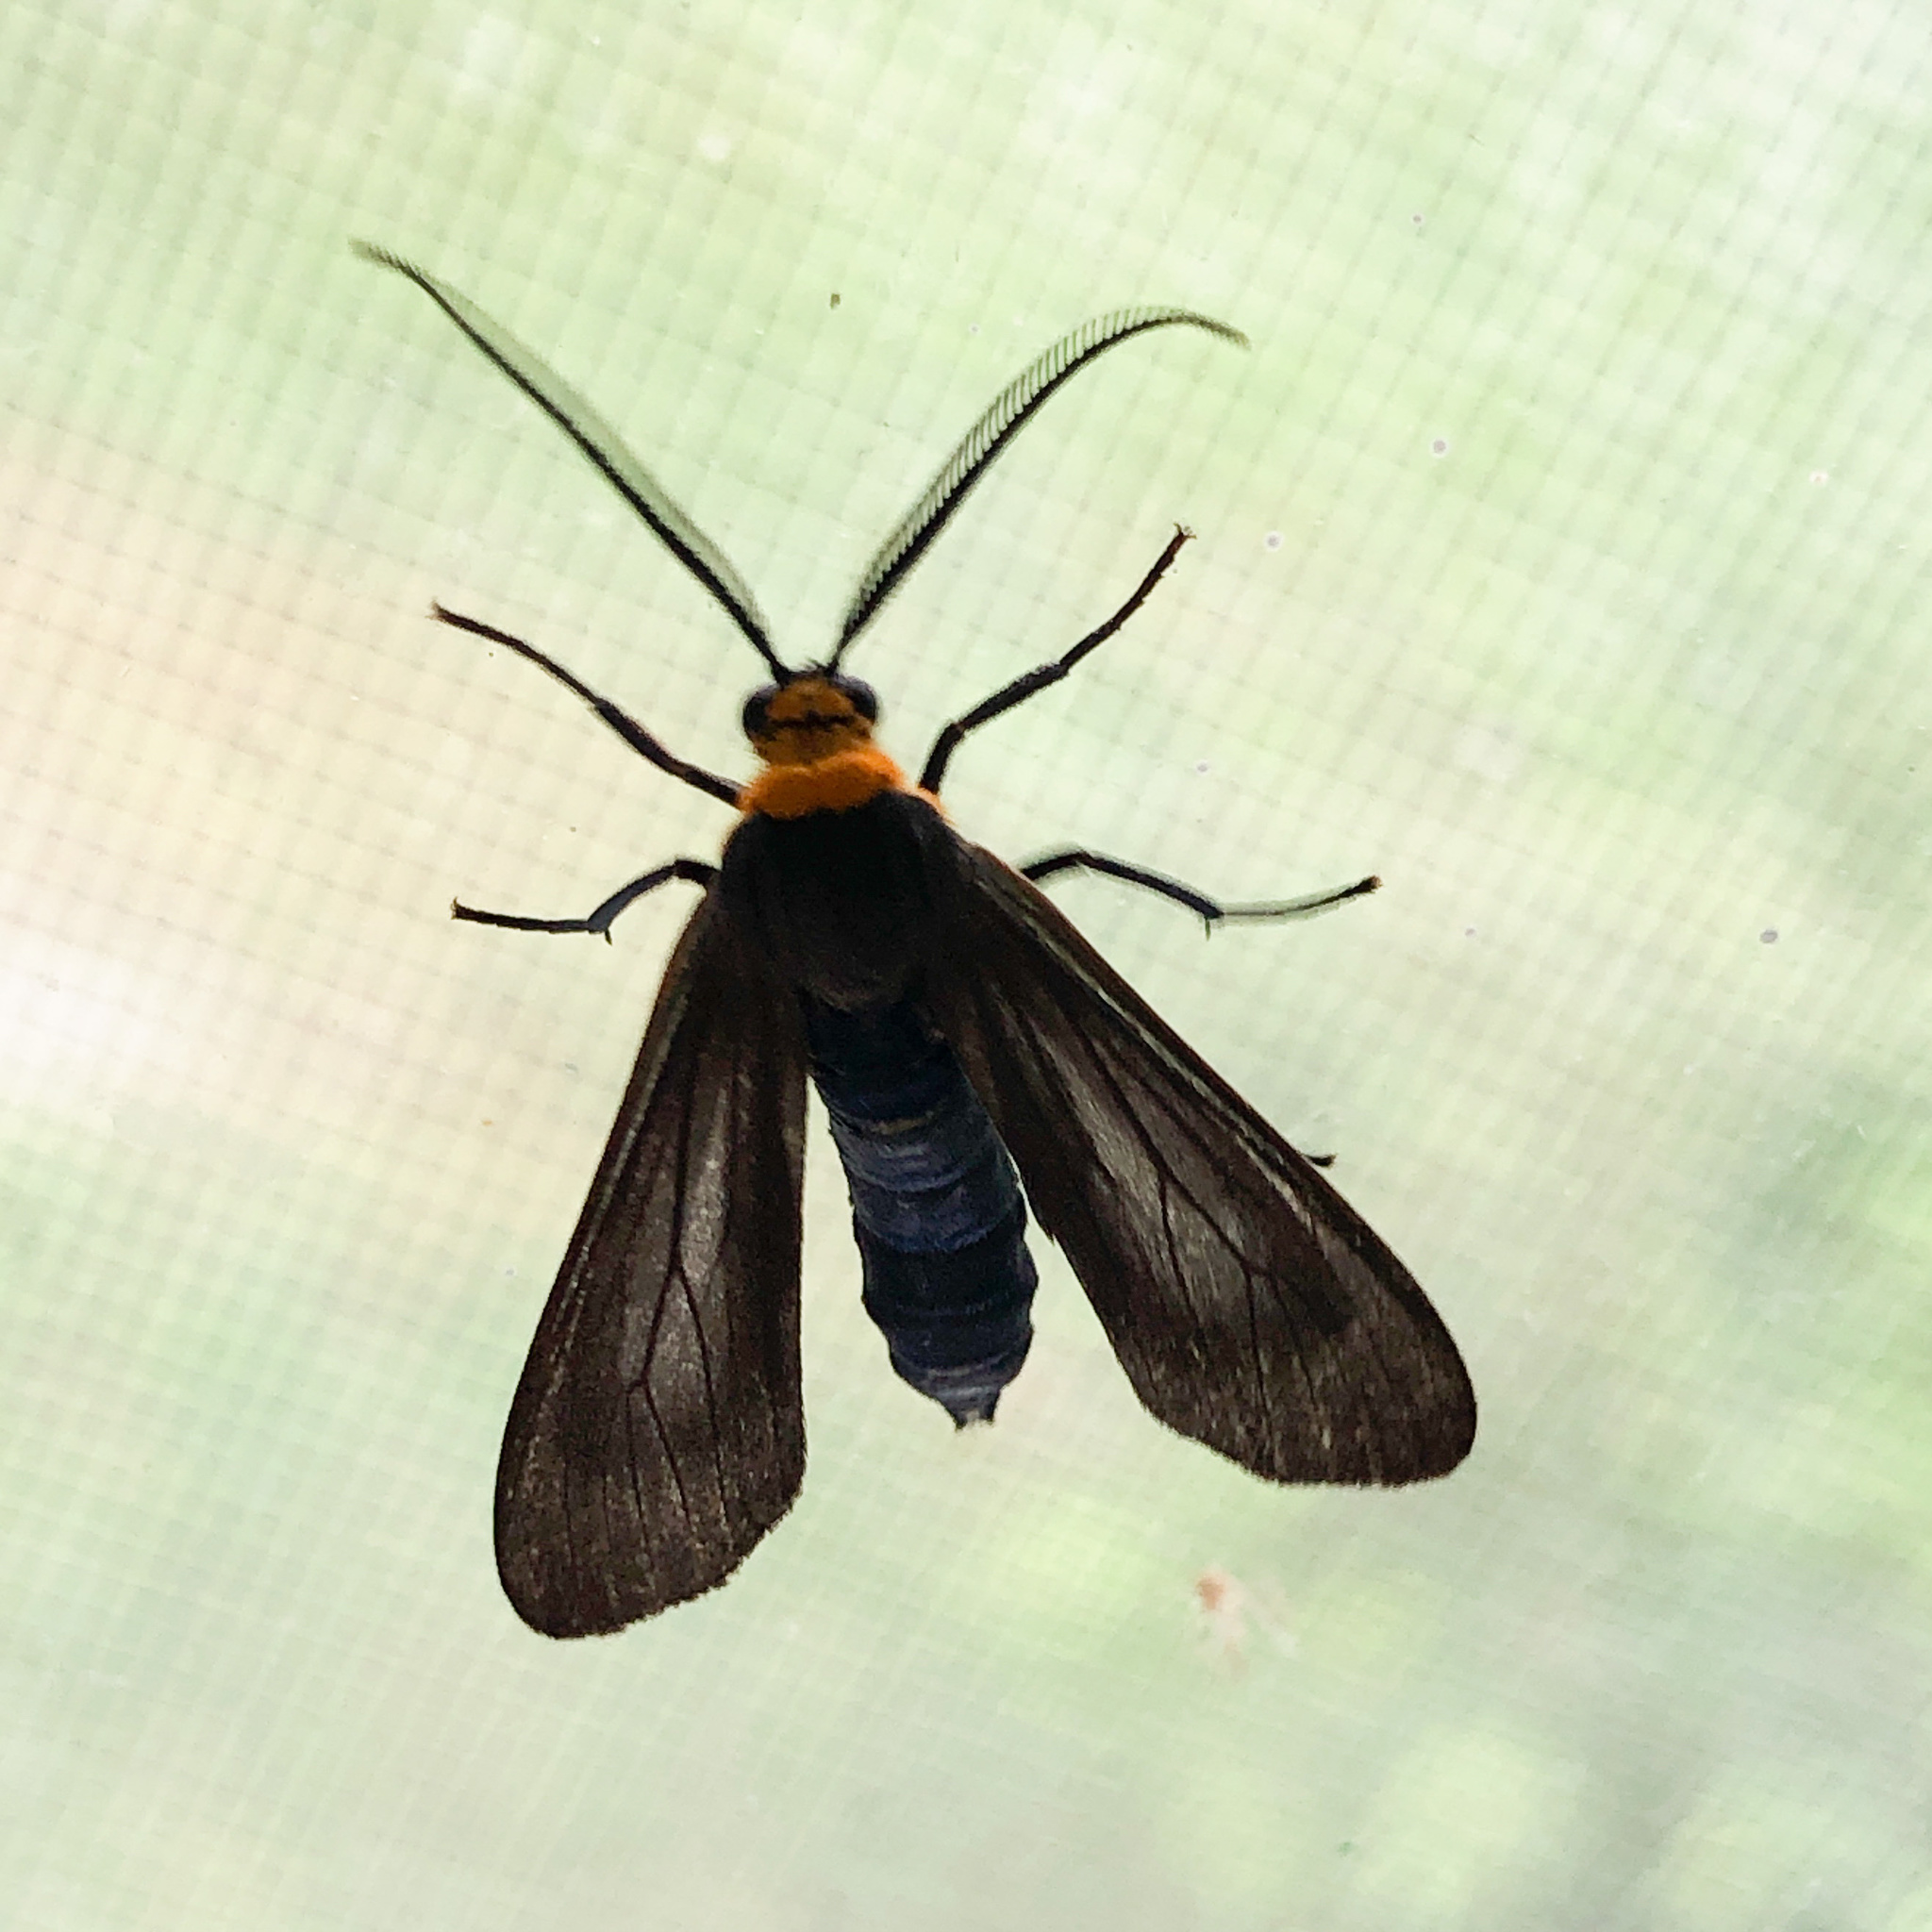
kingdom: Animalia
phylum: Arthropoda
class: Insecta
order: Lepidoptera
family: Erebidae
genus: Cisseps
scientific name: Cisseps fulvicollis
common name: Yellow-collared scape moth
